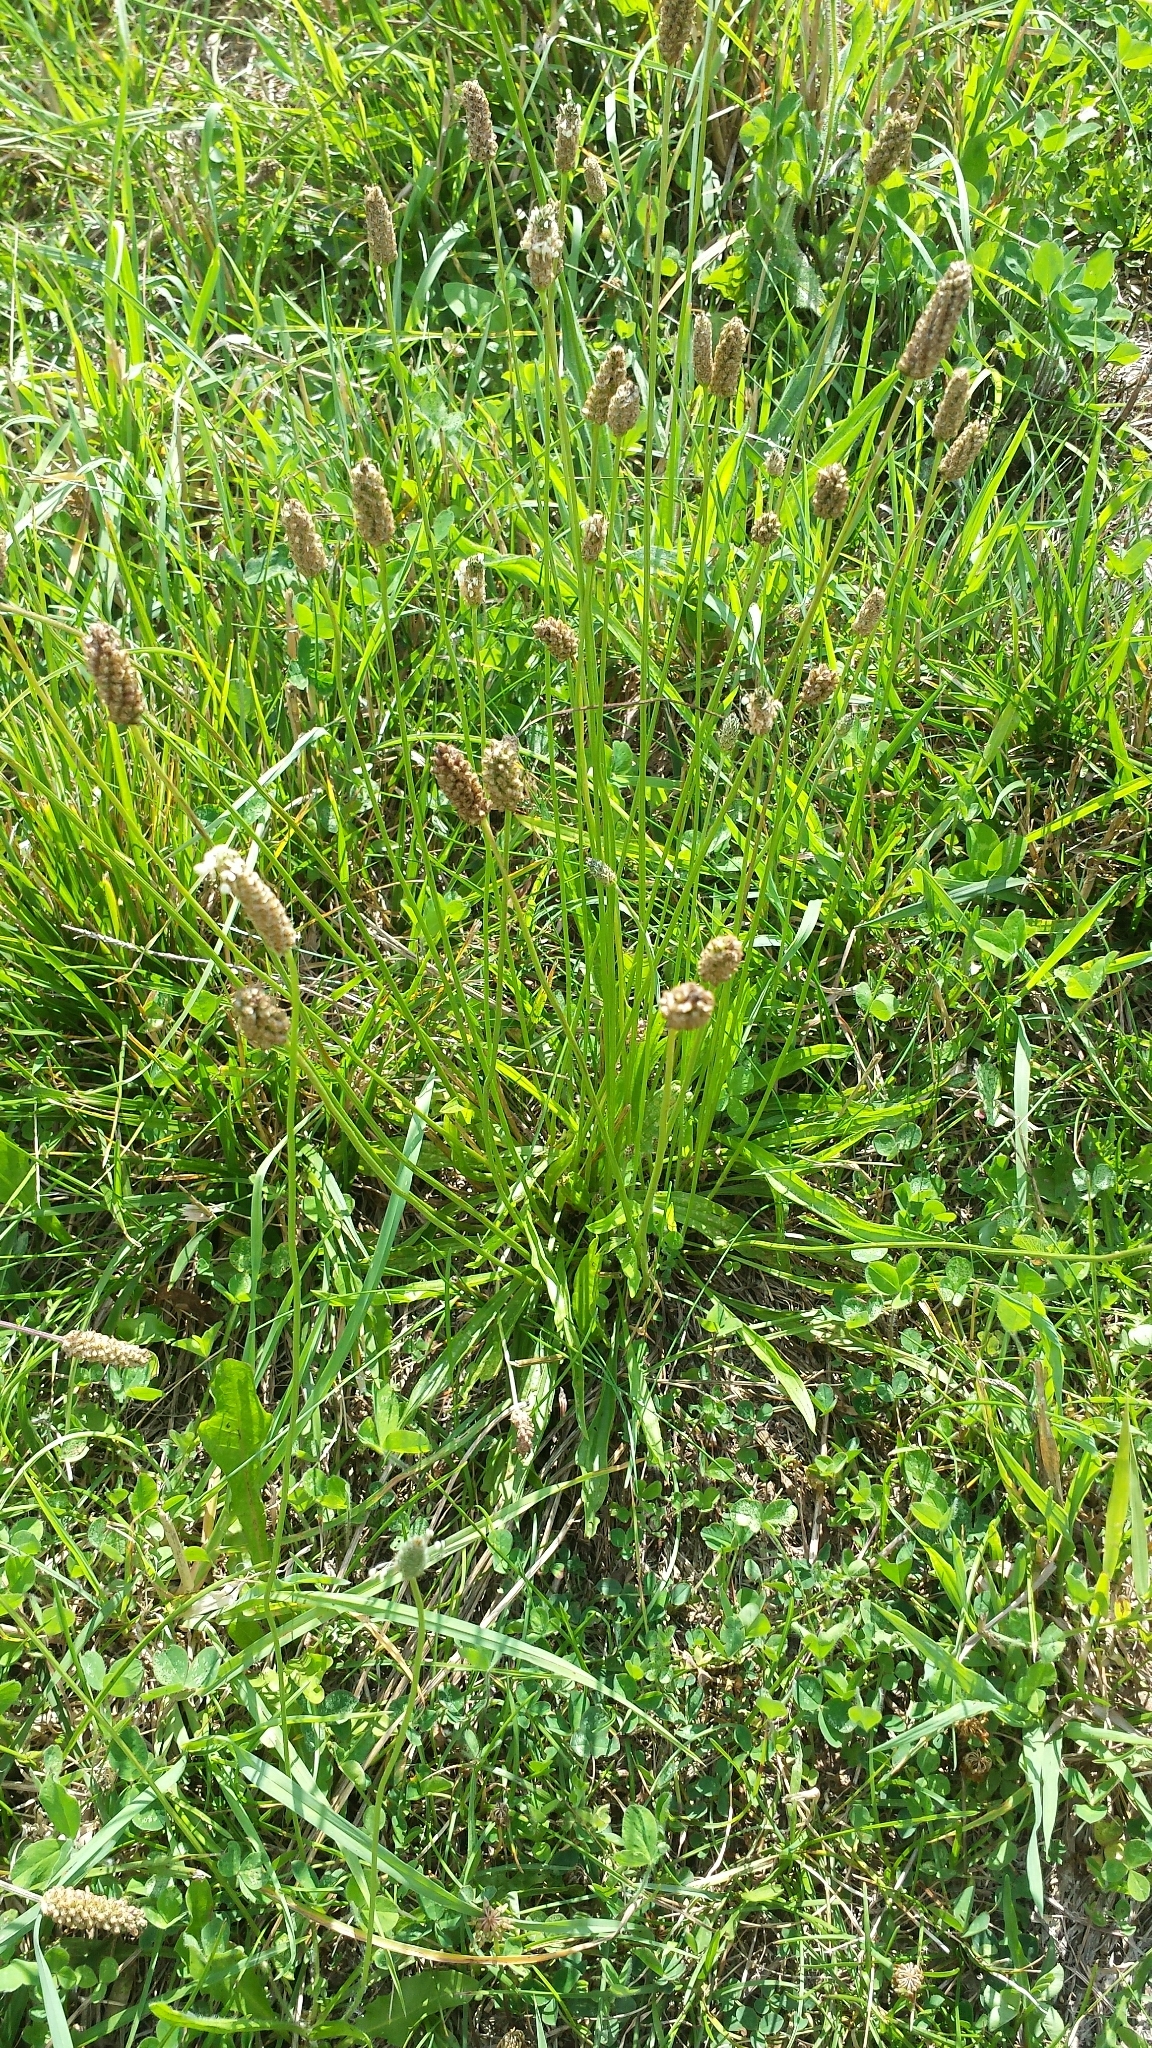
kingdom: Plantae
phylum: Tracheophyta
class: Magnoliopsida
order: Lamiales
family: Plantaginaceae
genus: Plantago
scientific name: Plantago lanceolata
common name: Ribwort plantain
